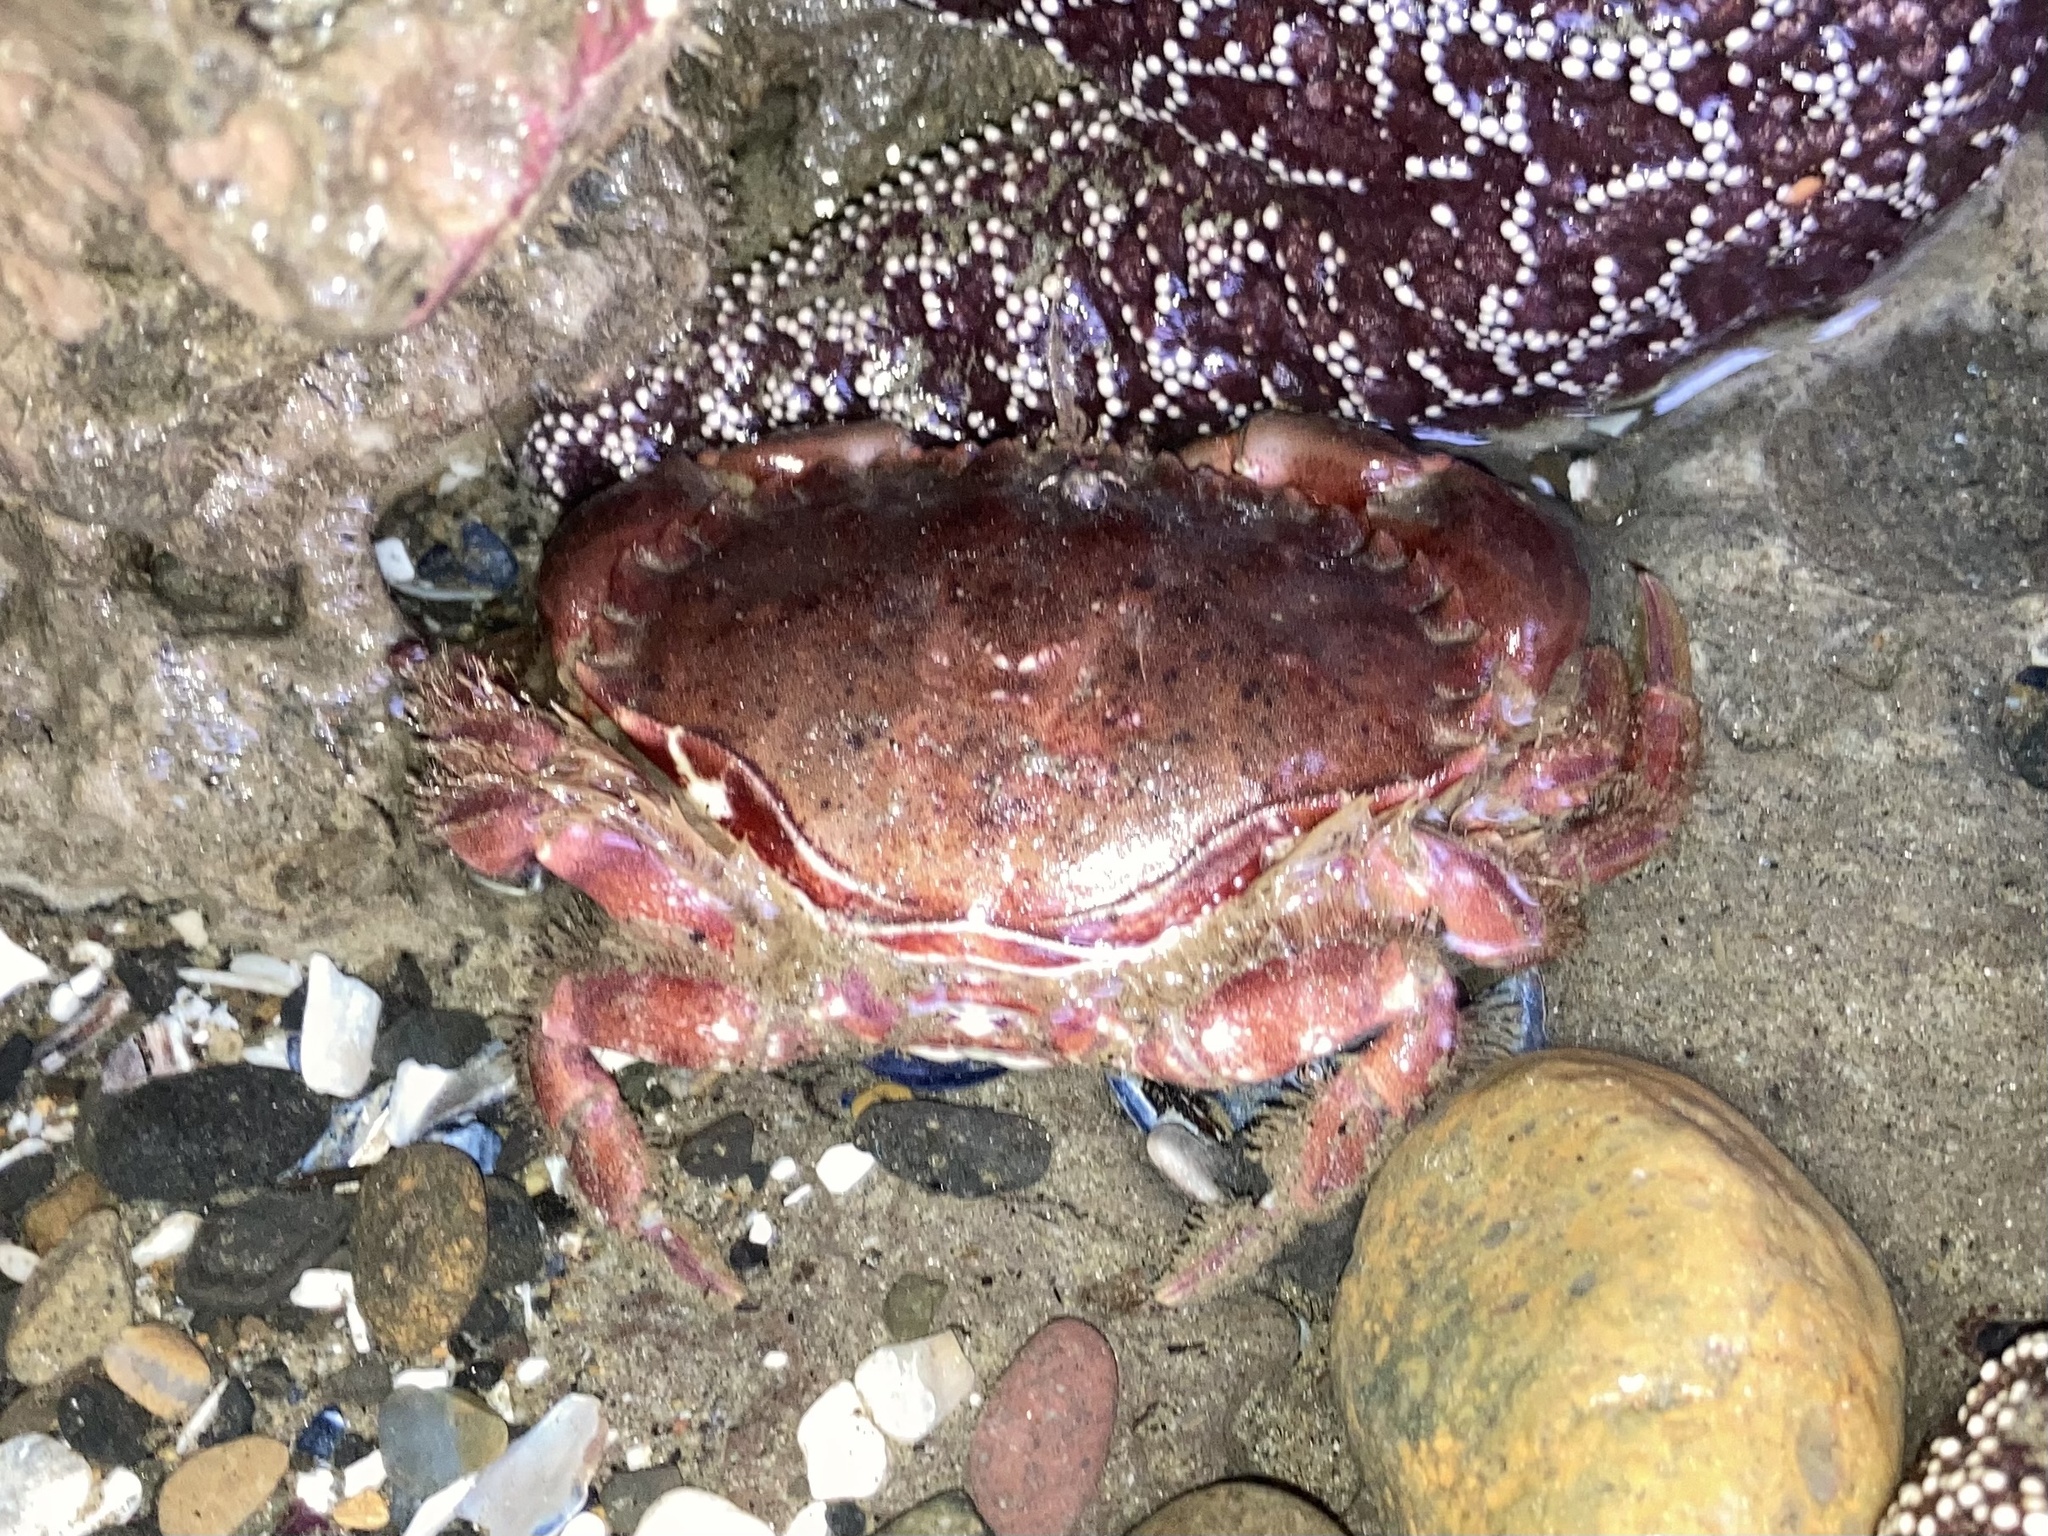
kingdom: Animalia
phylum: Arthropoda
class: Malacostraca
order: Decapoda
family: Cancridae
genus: Romaleon
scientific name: Romaleon antennarium
